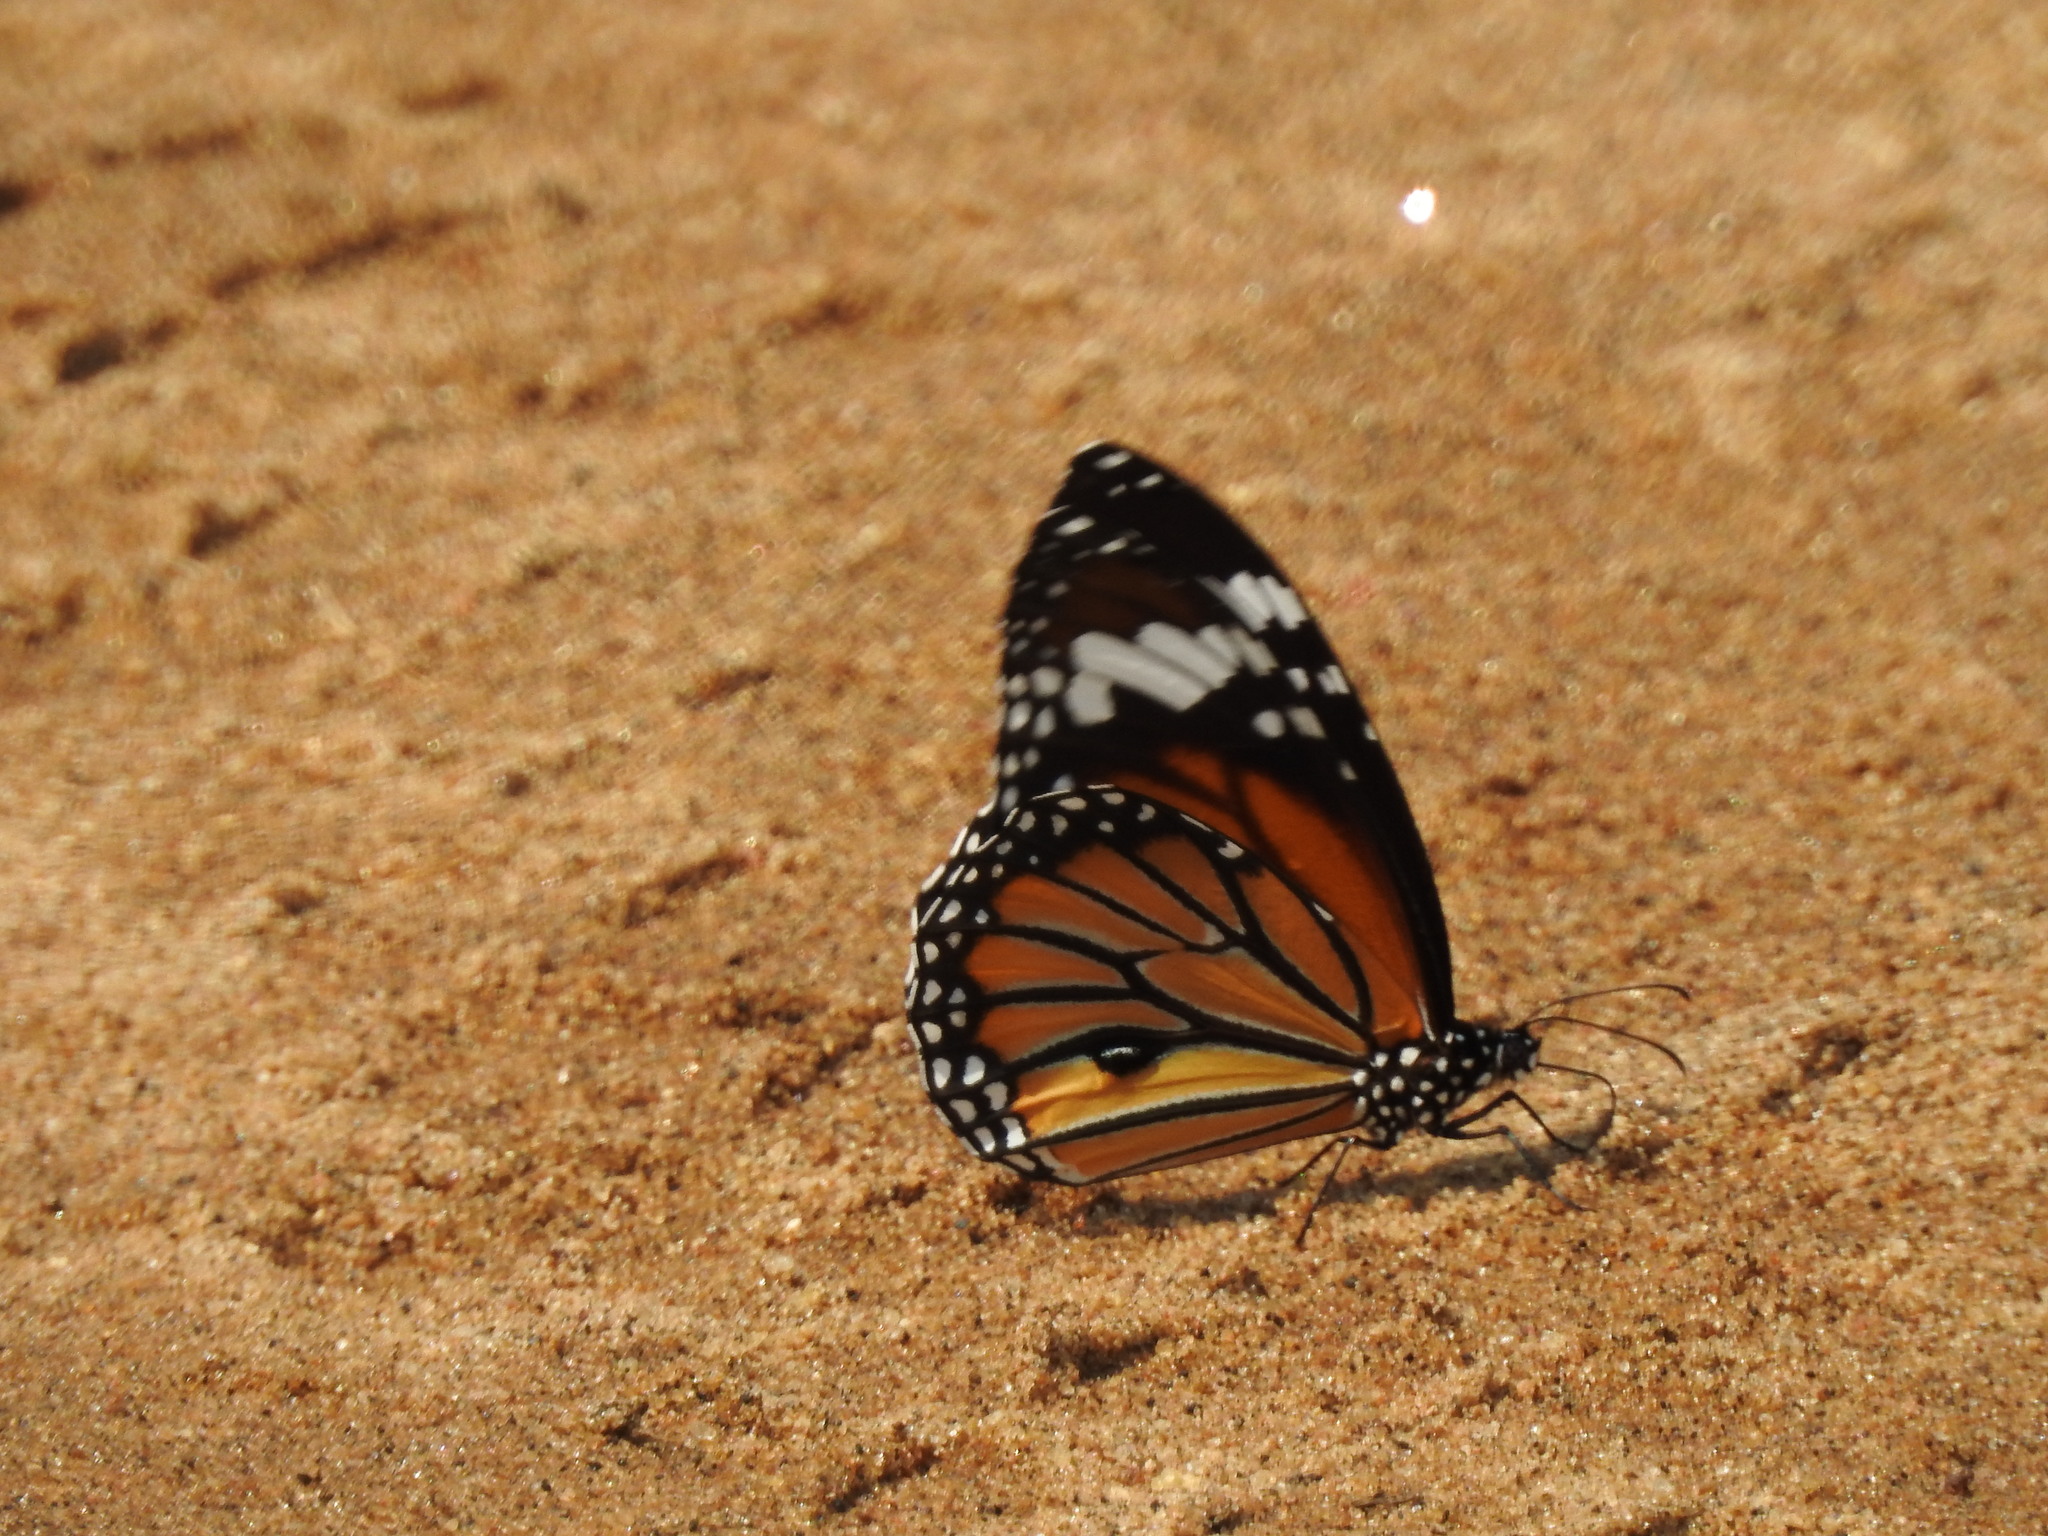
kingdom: Animalia
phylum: Arthropoda
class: Insecta
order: Lepidoptera
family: Nymphalidae
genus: Danaus
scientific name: Danaus genutia
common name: Common tiger butterfly
